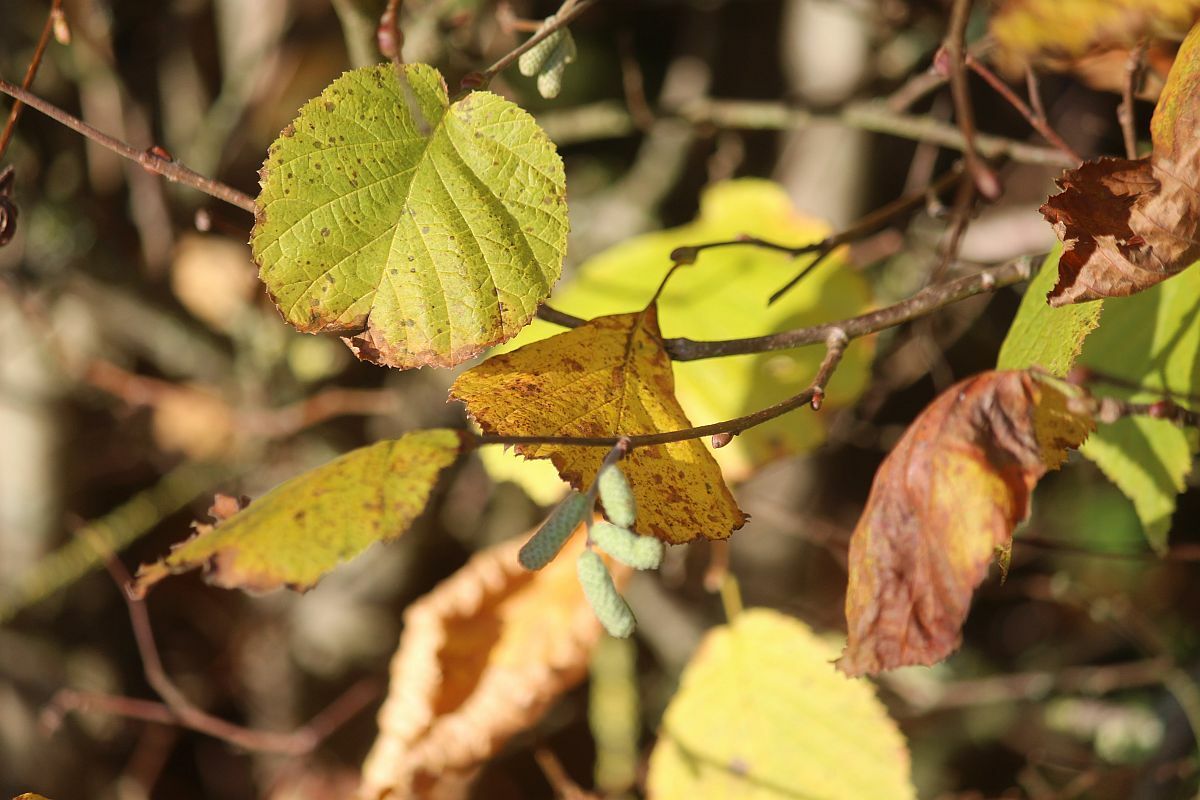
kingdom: Plantae
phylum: Tracheophyta
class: Magnoliopsida
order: Fagales
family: Betulaceae
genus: Corylus
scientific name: Corylus avellana
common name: European hazel
